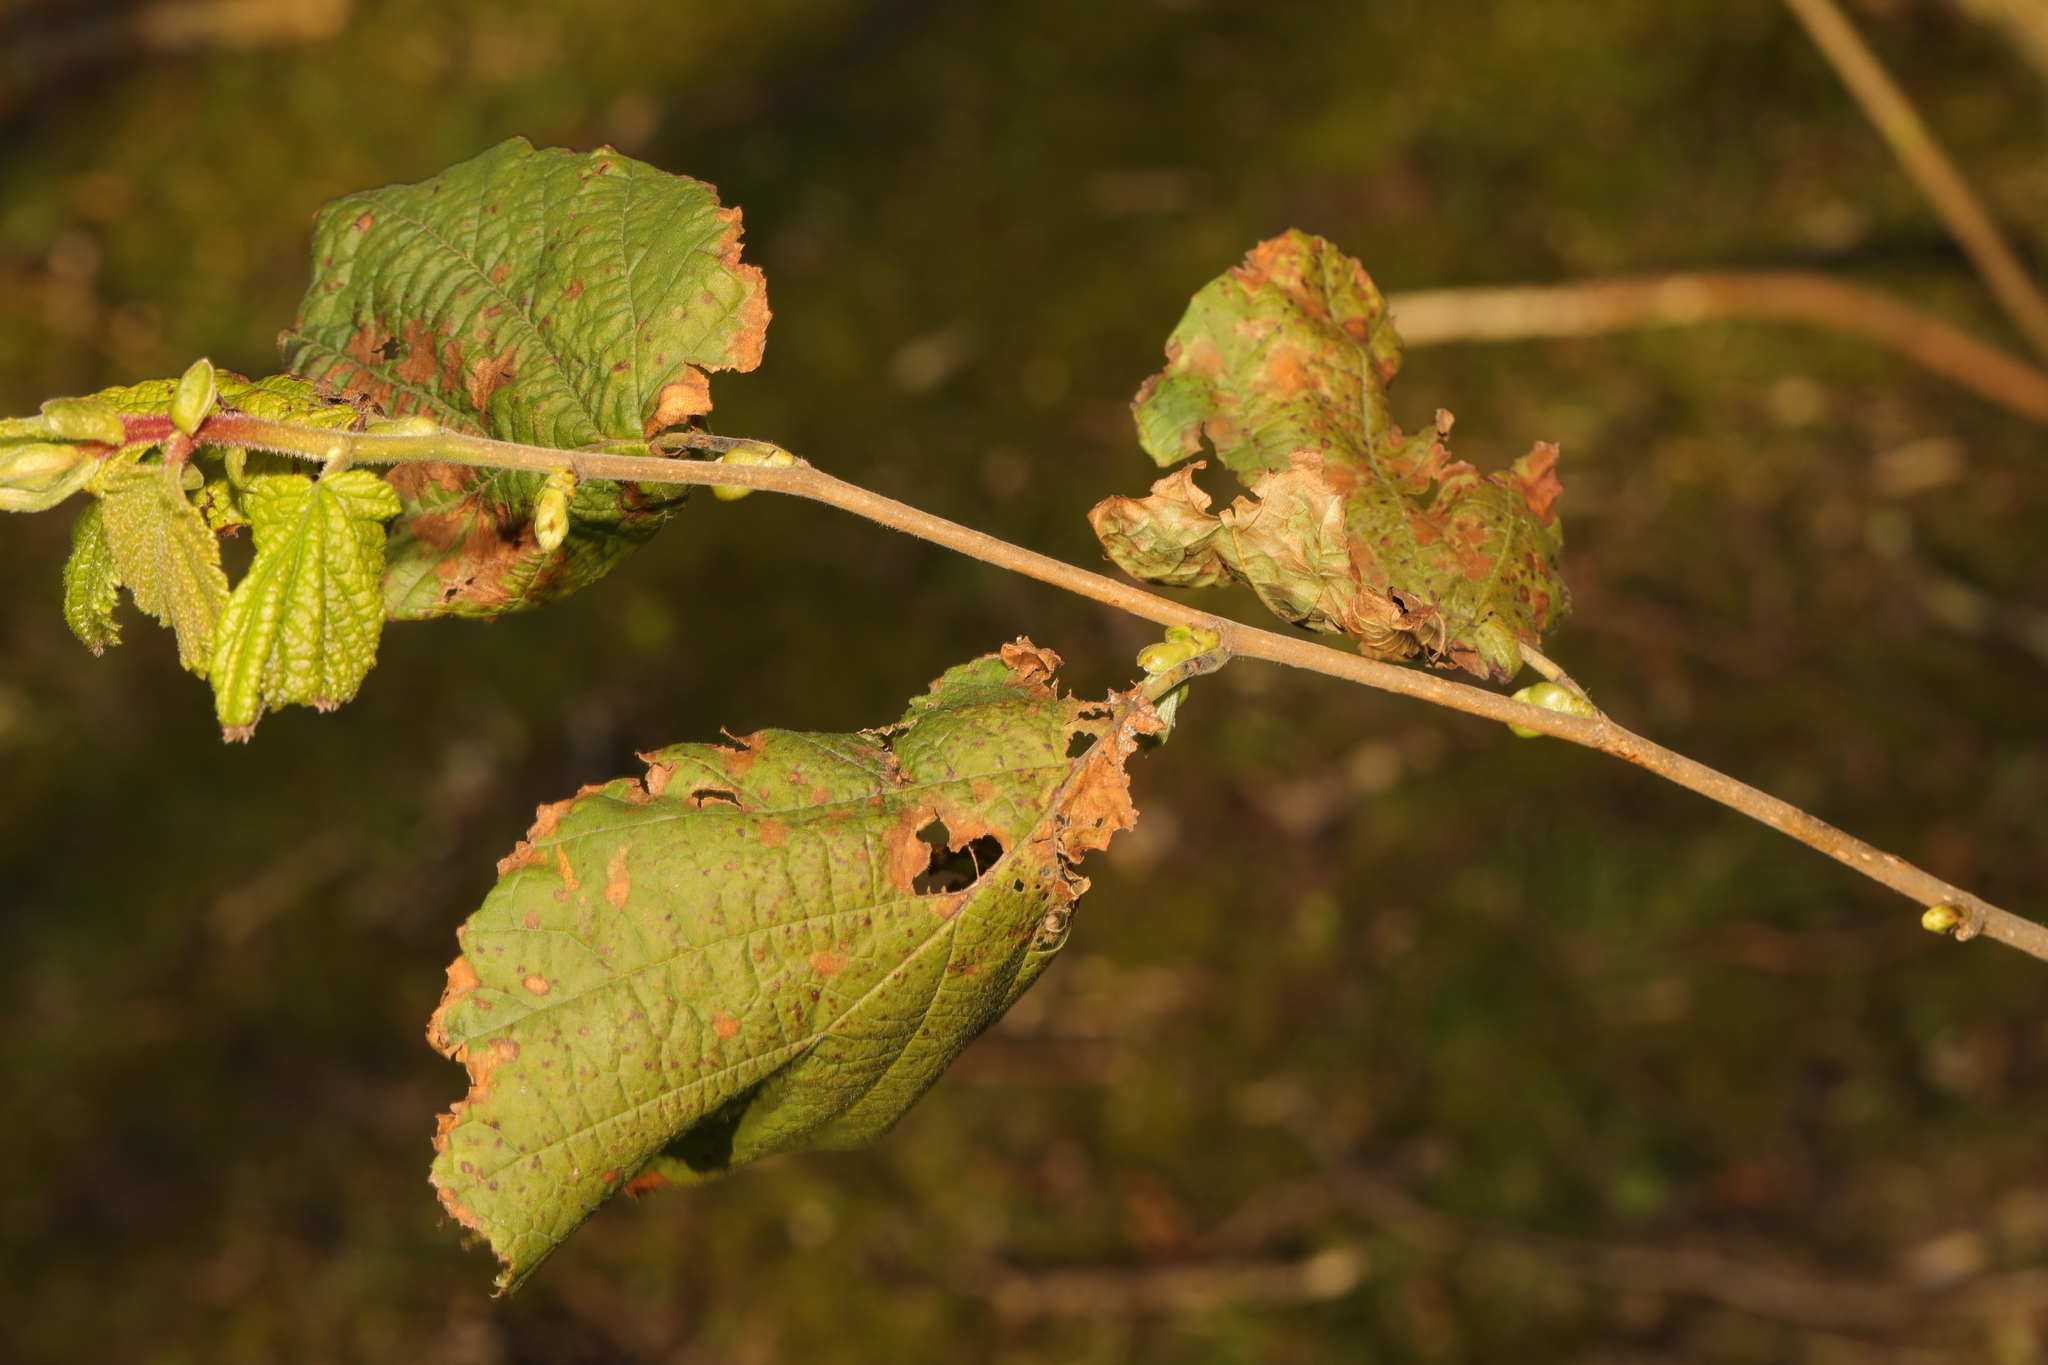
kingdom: Plantae
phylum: Tracheophyta
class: Magnoliopsida
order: Fagales
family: Betulaceae
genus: Corylus
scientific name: Corylus avellana
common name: European hazel
